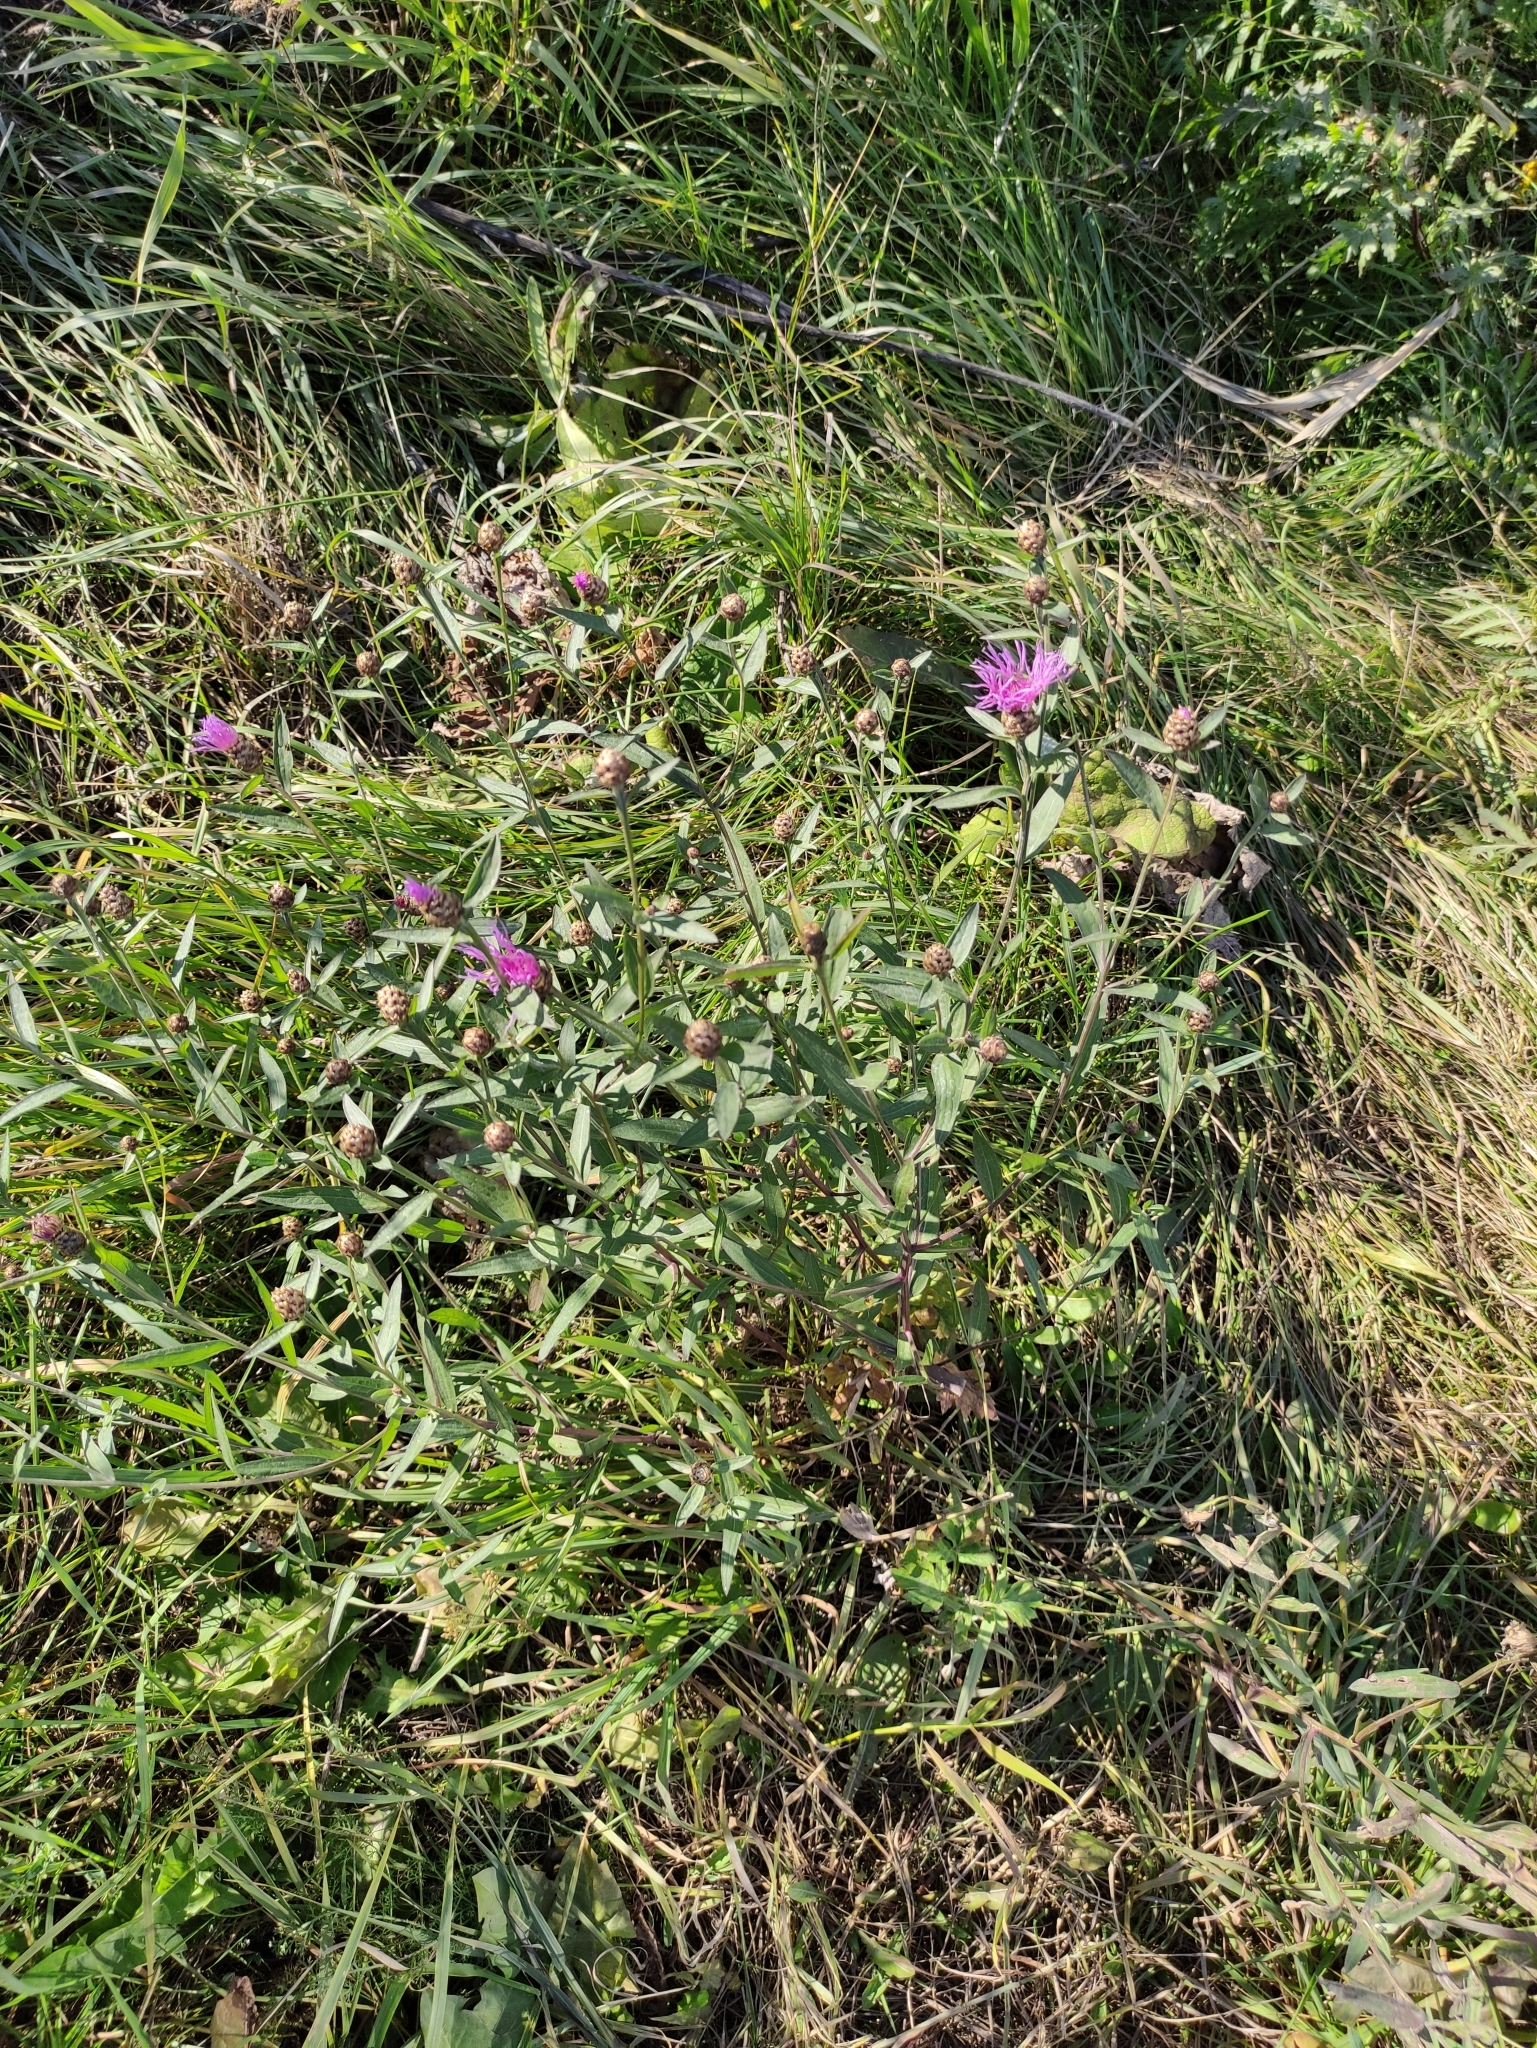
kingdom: Plantae
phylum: Tracheophyta
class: Magnoliopsida
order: Asterales
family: Asteraceae
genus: Centaurea
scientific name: Centaurea jacea
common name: Brown knapweed
